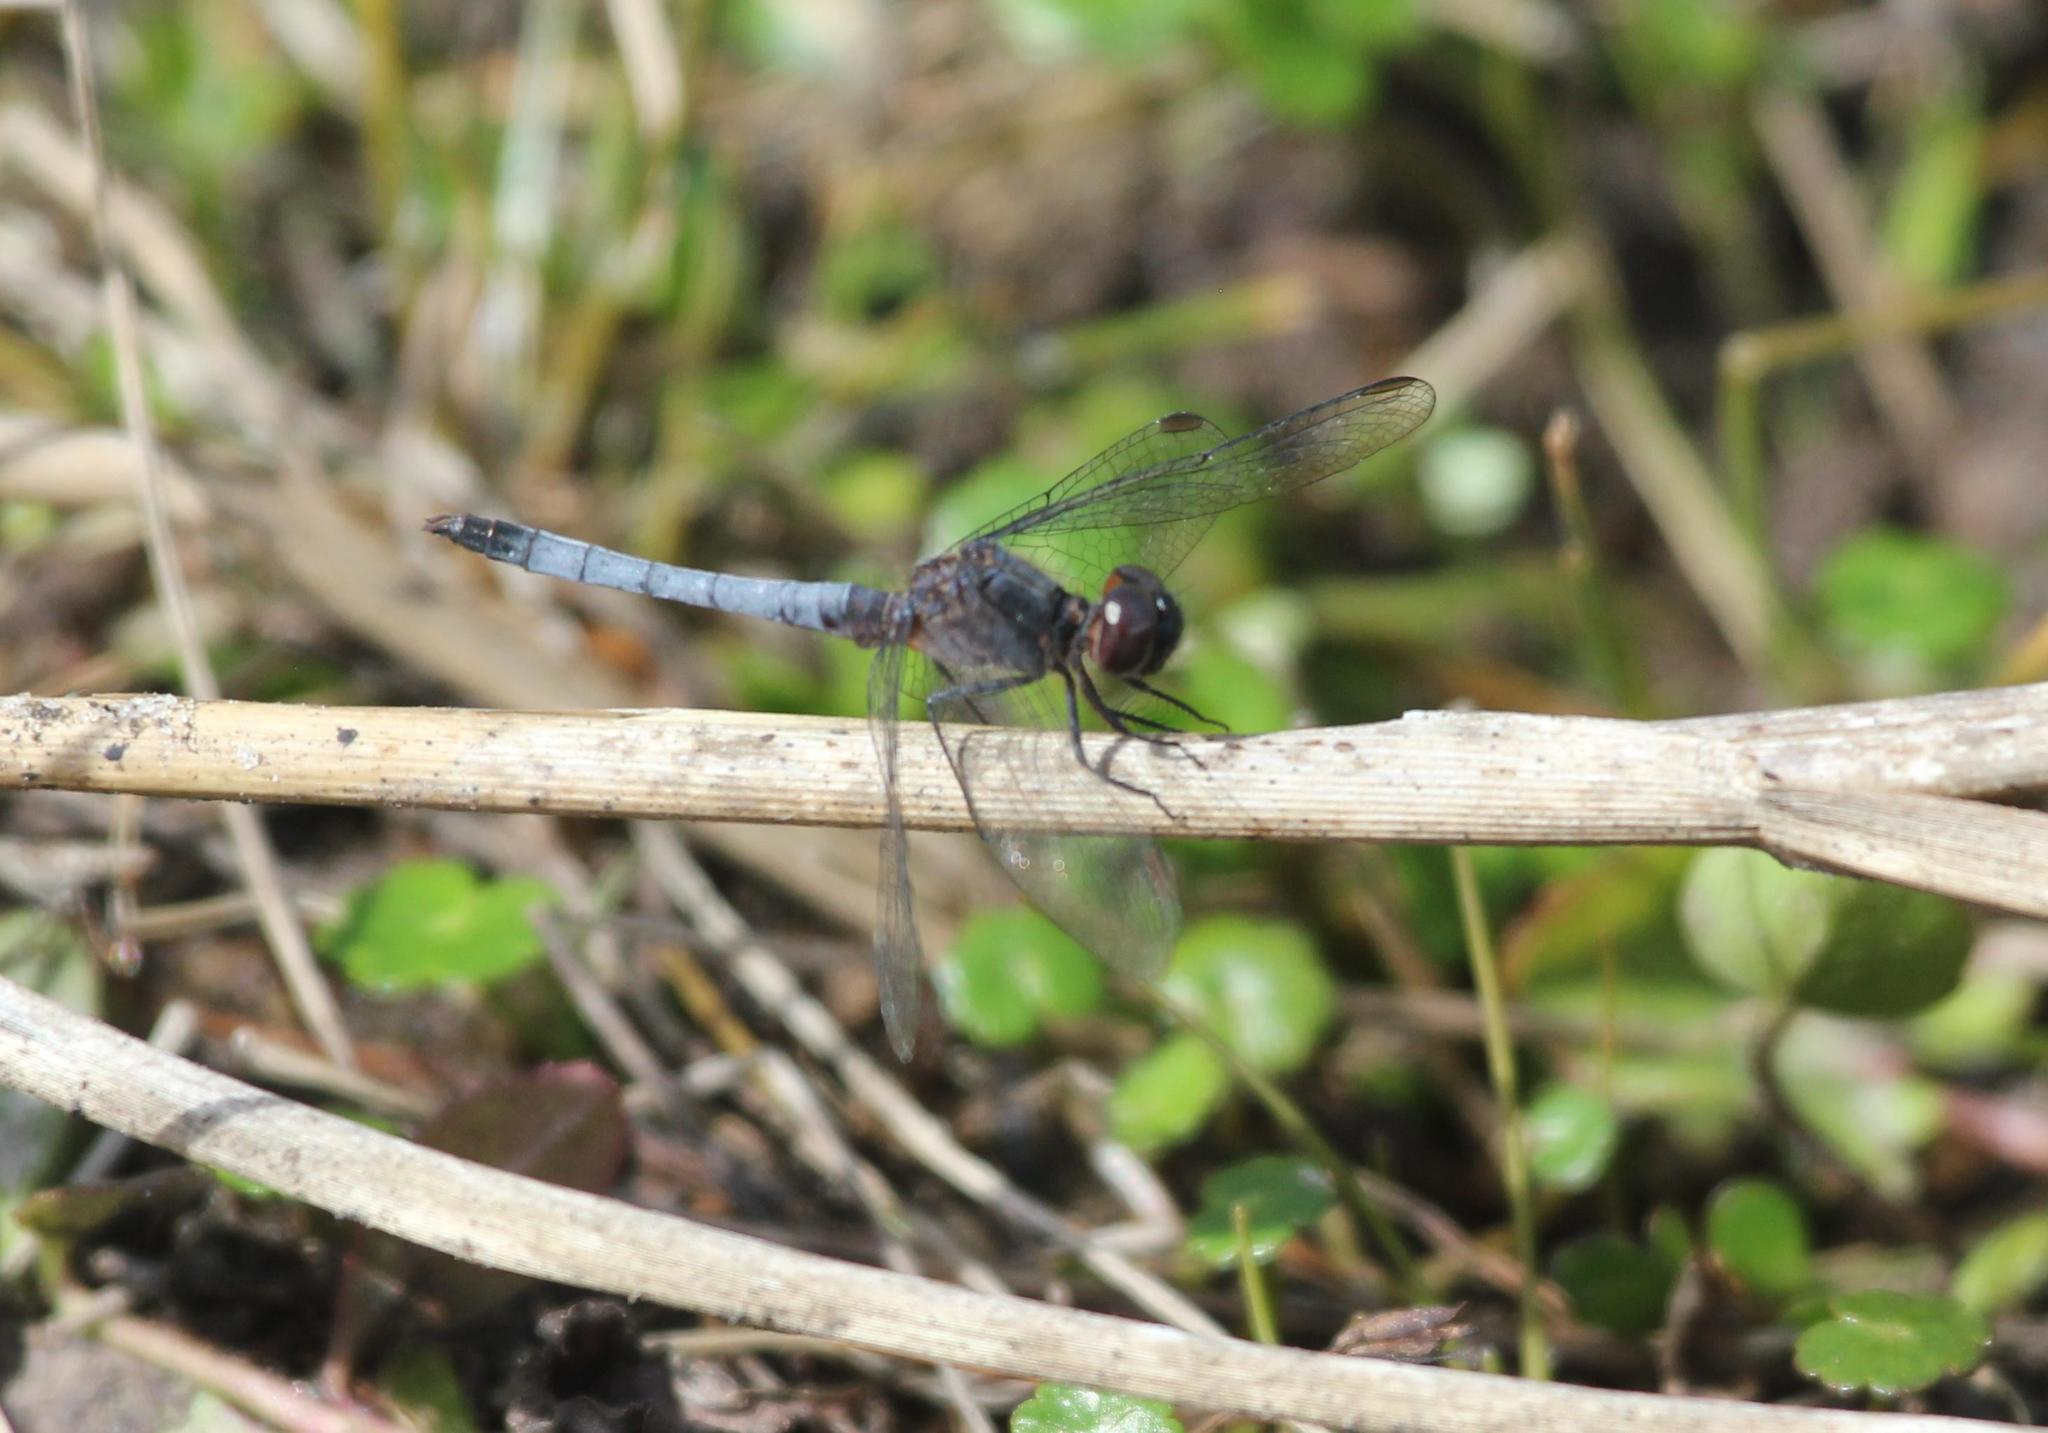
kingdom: Animalia
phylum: Arthropoda
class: Insecta
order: Odonata
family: Libellulidae
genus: Erythrodiplax
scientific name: Erythrodiplax minuscula
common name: Little blue dragonlet
